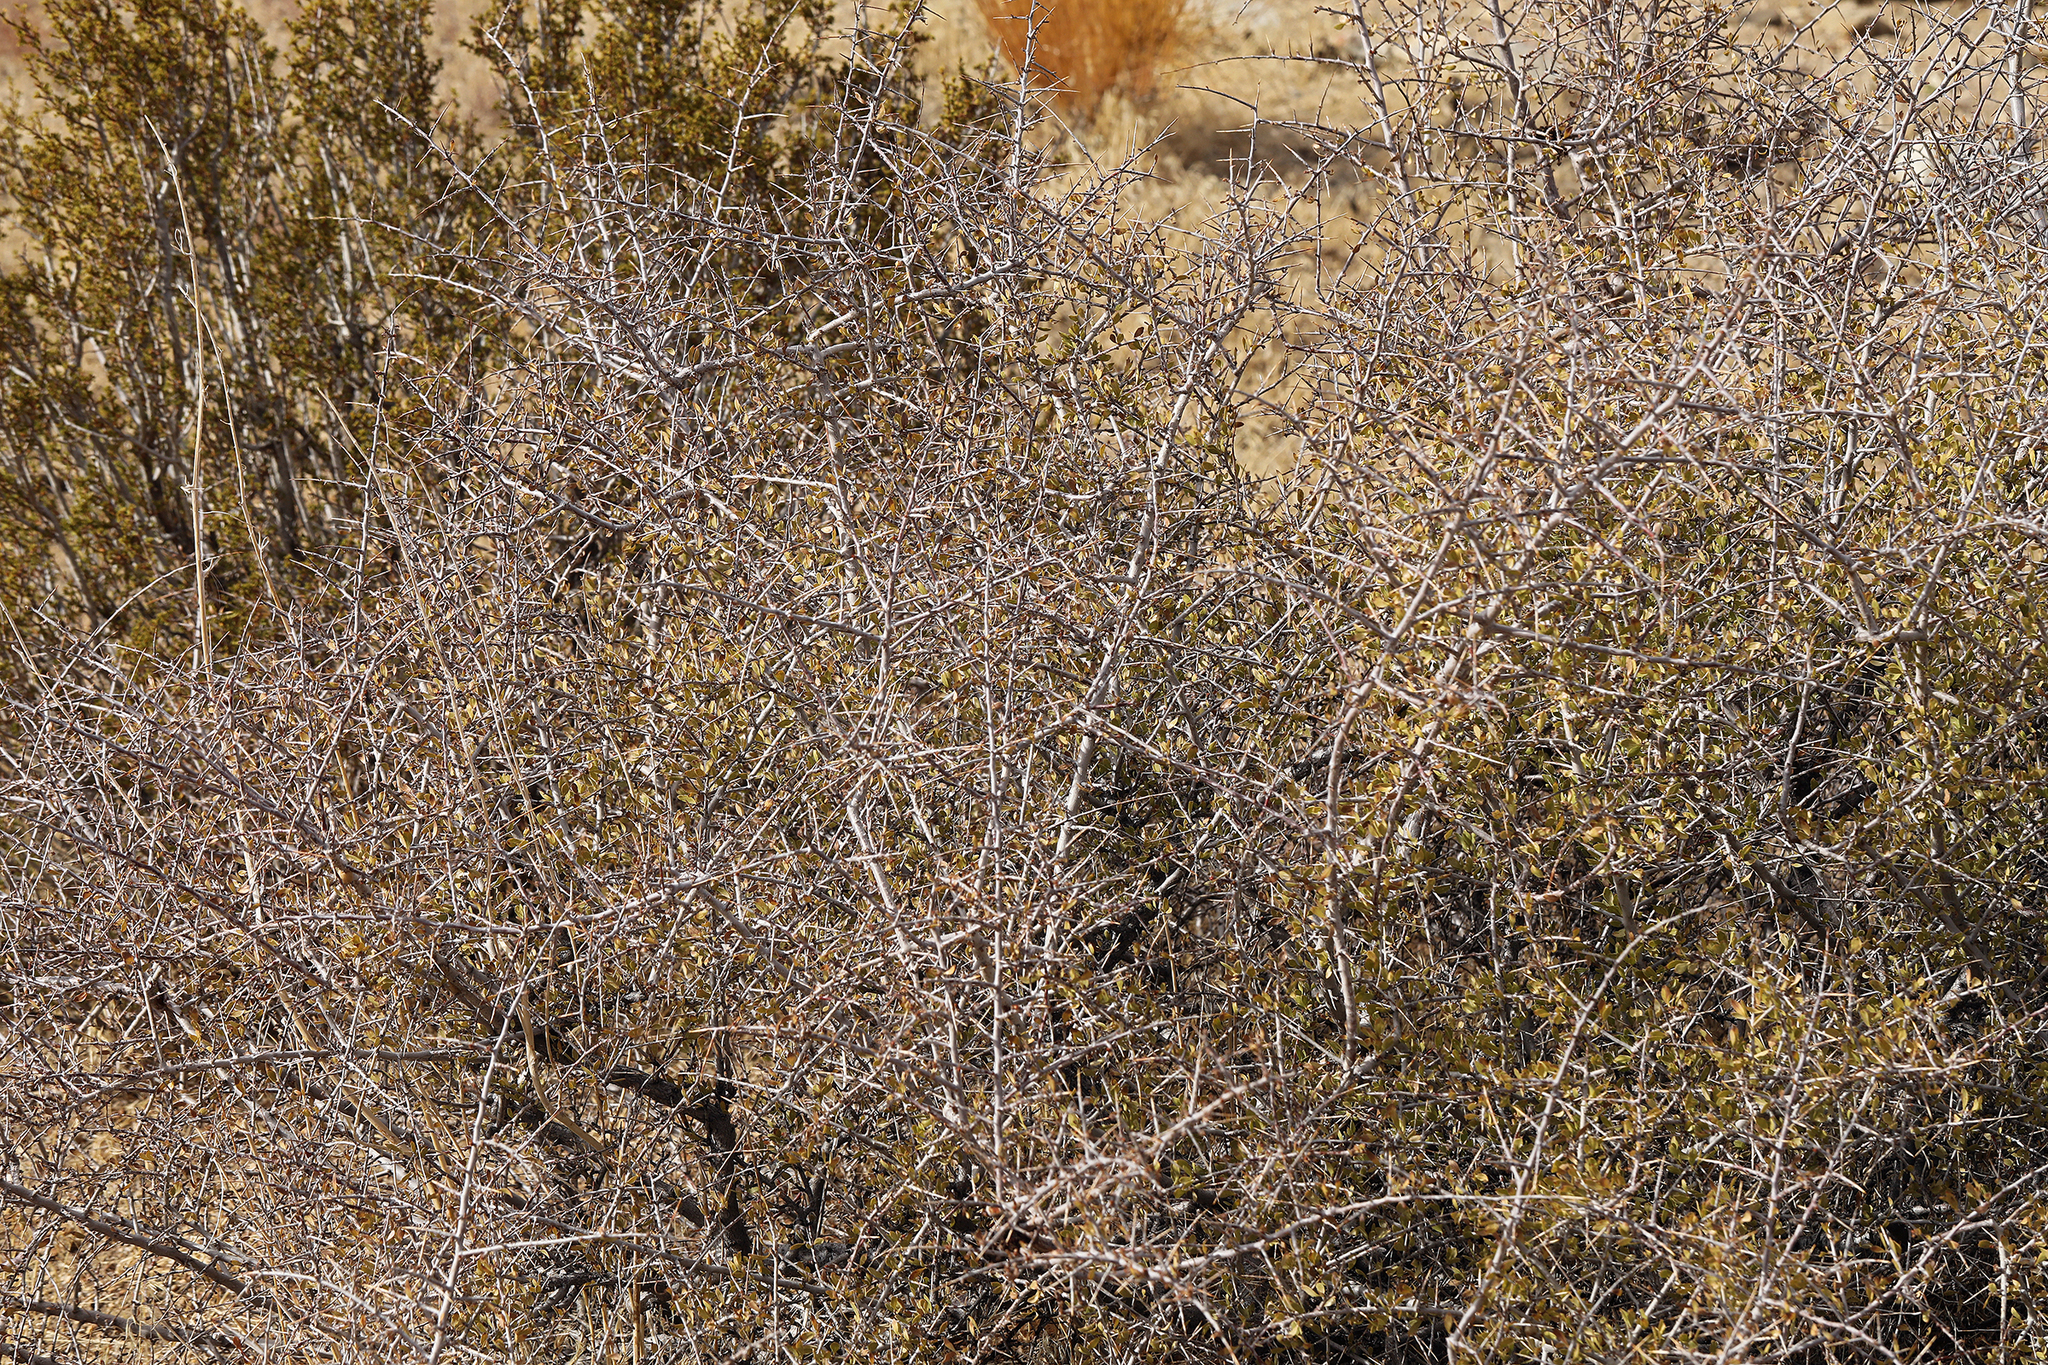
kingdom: Plantae
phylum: Tracheophyta
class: Magnoliopsida
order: Rosales
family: Rosaceae
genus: Prunus
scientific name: Prunus andersonii
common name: Desert peach
